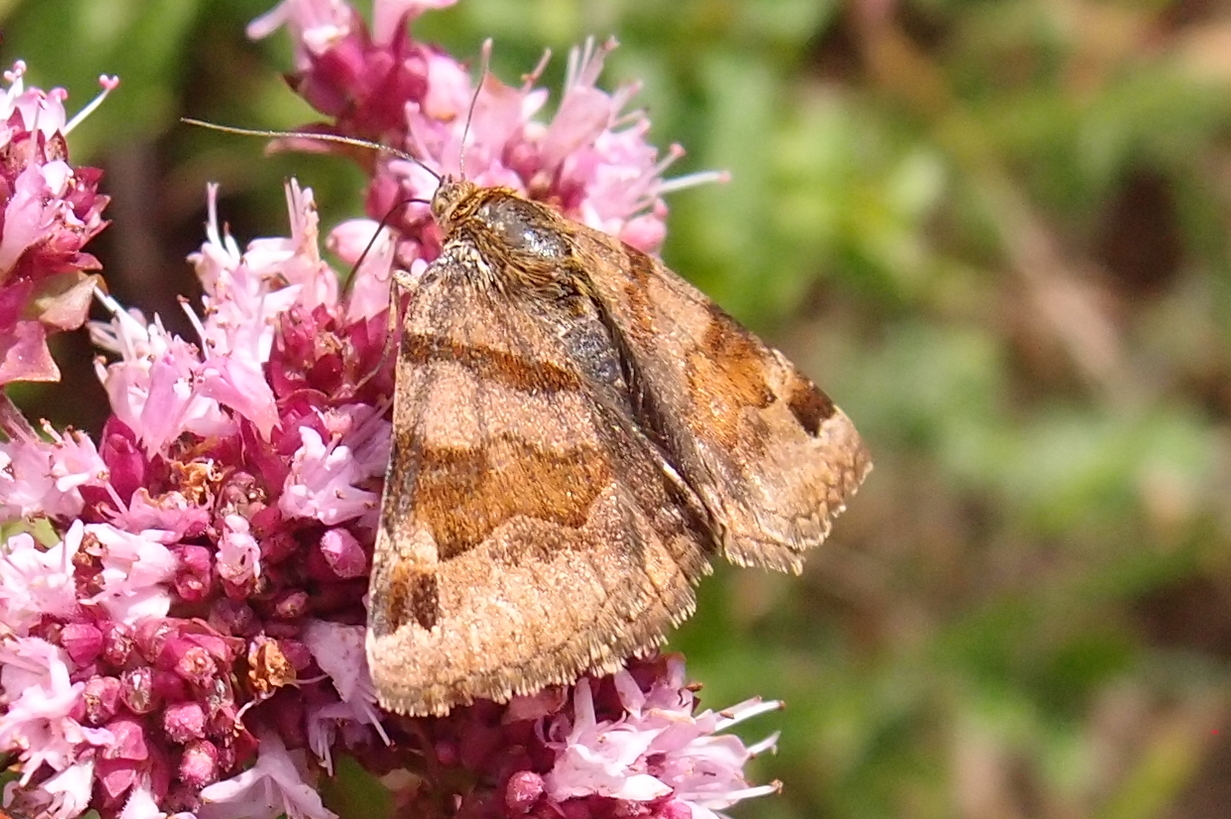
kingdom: Animalia
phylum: Arthropoda
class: Insecta
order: Lepidoptera
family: Erebidae
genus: Euclidia
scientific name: Euclidia glyphica
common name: Burnet companion
